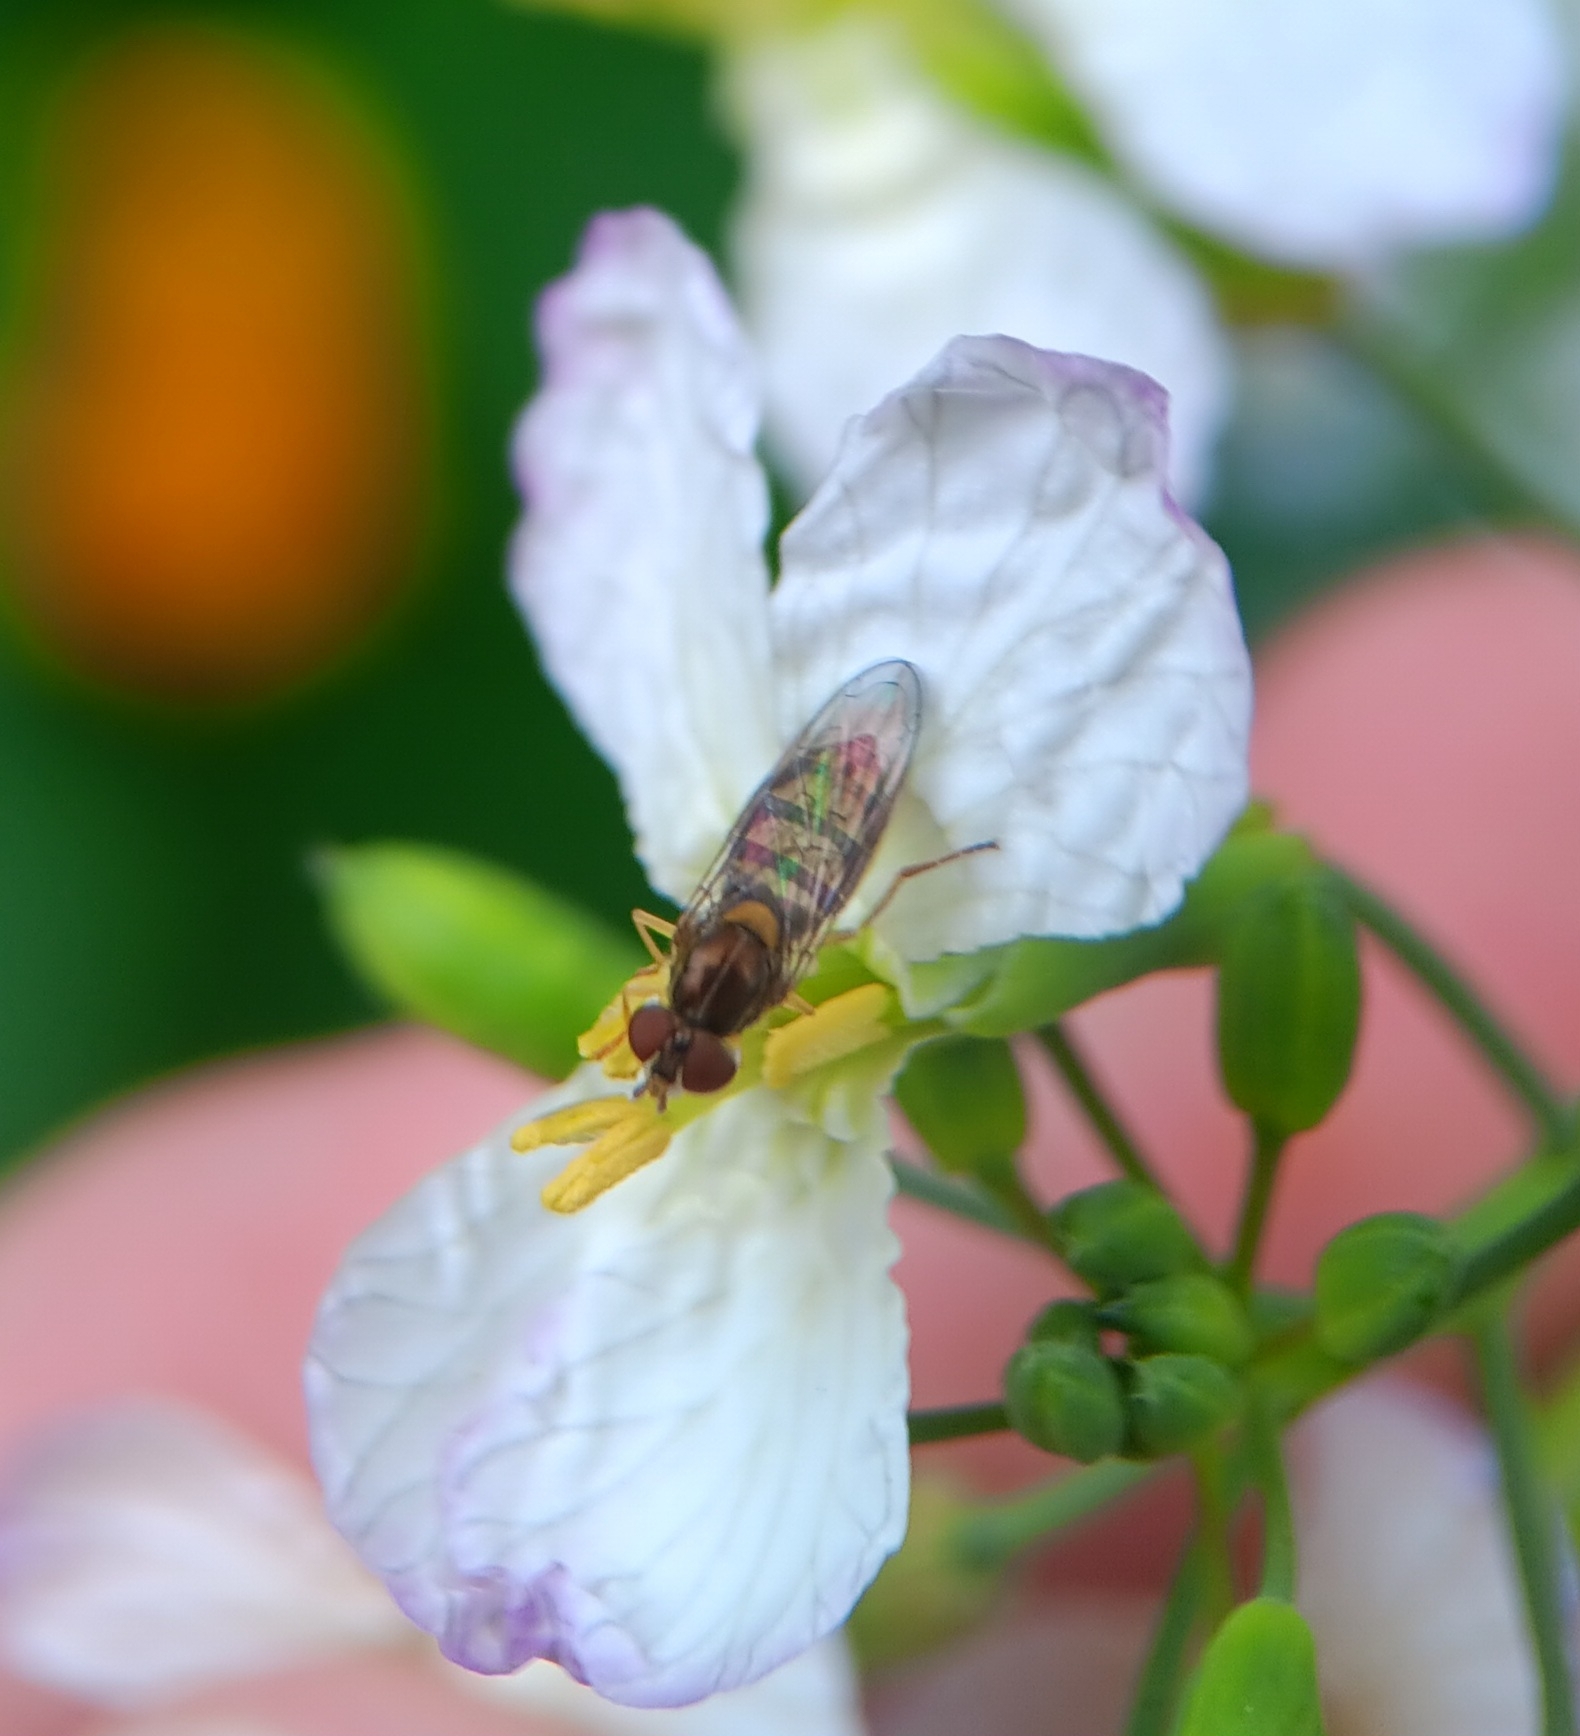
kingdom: Animalia
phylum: Arthropoda
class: Insecta
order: Diptera
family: Syrphidae
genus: Toxomerus
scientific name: Toxomerus marginatus
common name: Syrphid fly
